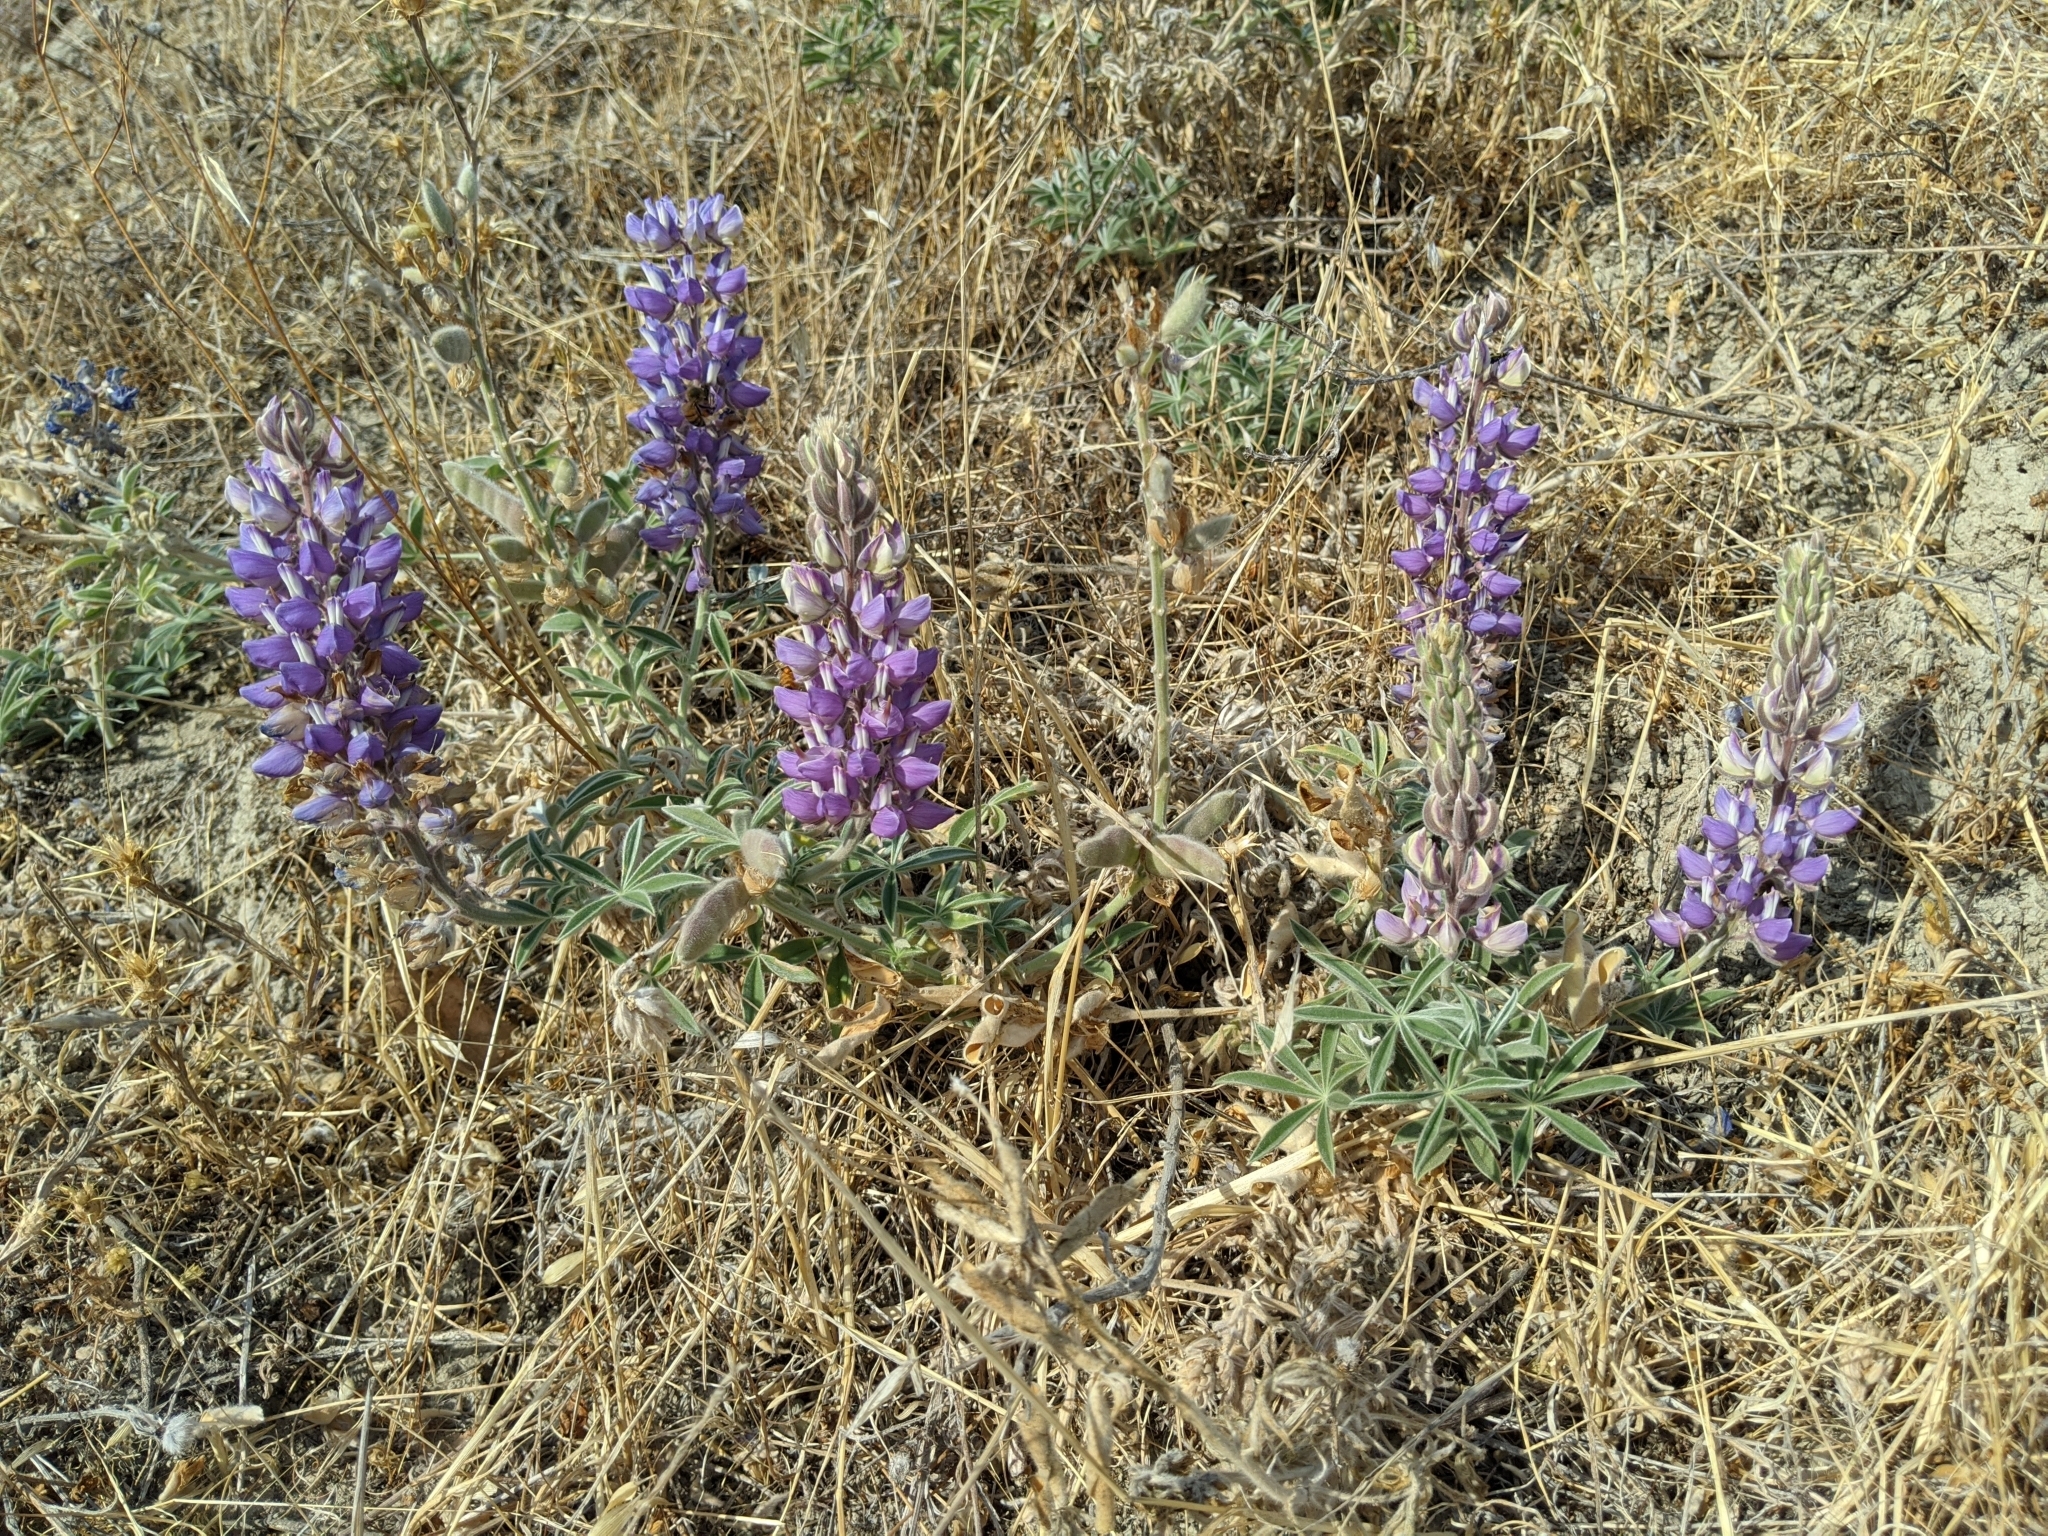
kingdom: Plantae
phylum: Tracheophyta
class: Magnoliopsida
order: Fabales
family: Fabaceae
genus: Lupinus
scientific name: Lupinus formosus
